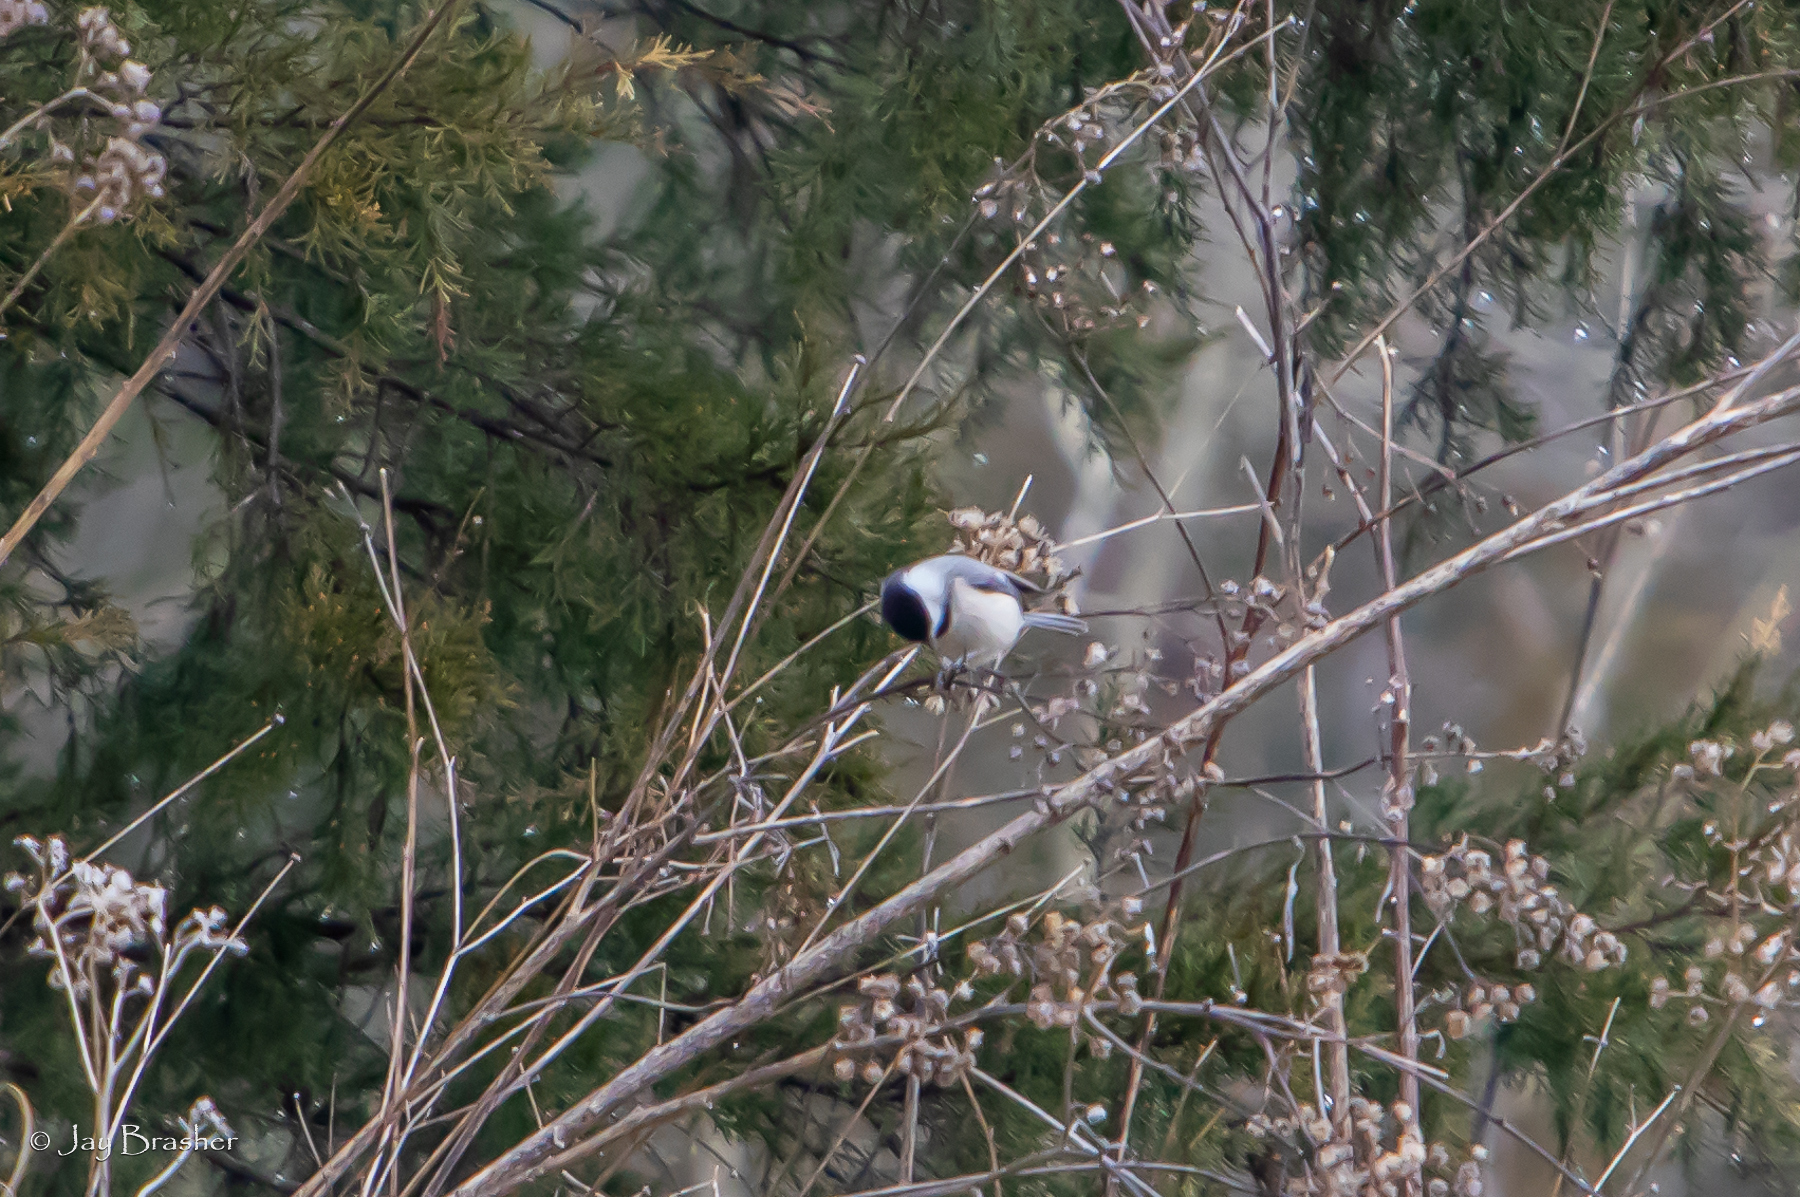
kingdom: Animalia
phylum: Chordata
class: Aves
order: Passeriformes
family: Paridae
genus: Poecile
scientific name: Poecile carolinensis
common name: Carolina chickadee
